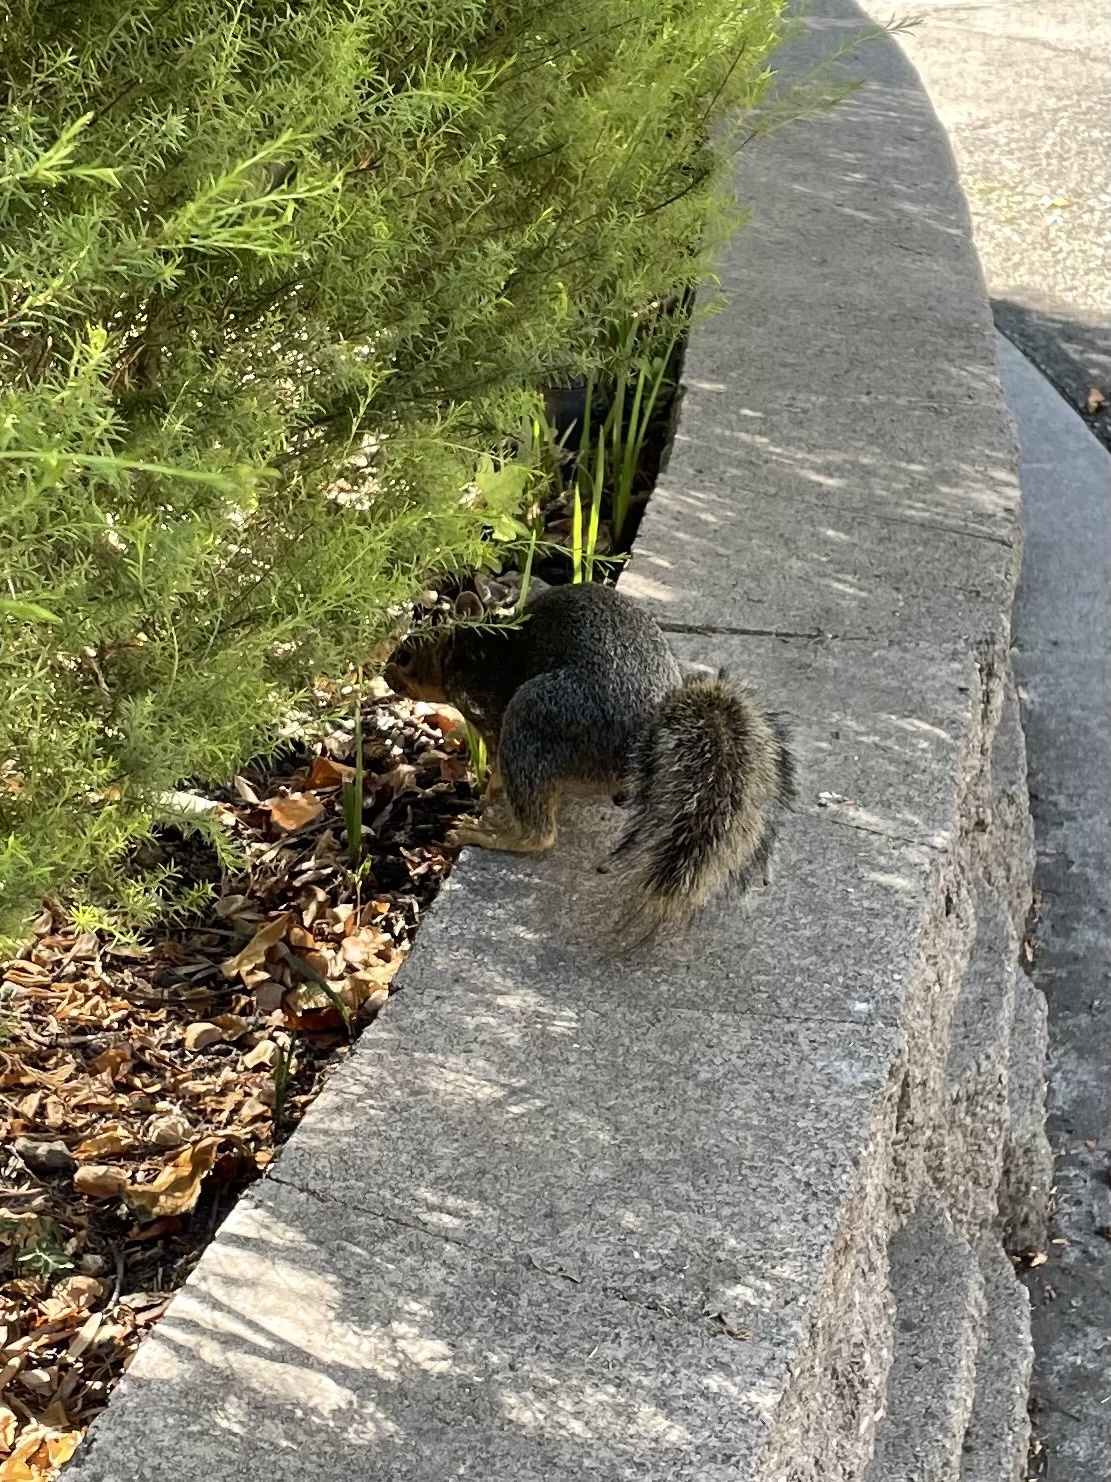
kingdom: Animalia
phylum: Chordata
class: Mammalia
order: Rodentia
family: Sciuridae
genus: Sciurus
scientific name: Sciurus niger
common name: Fox squirrel
